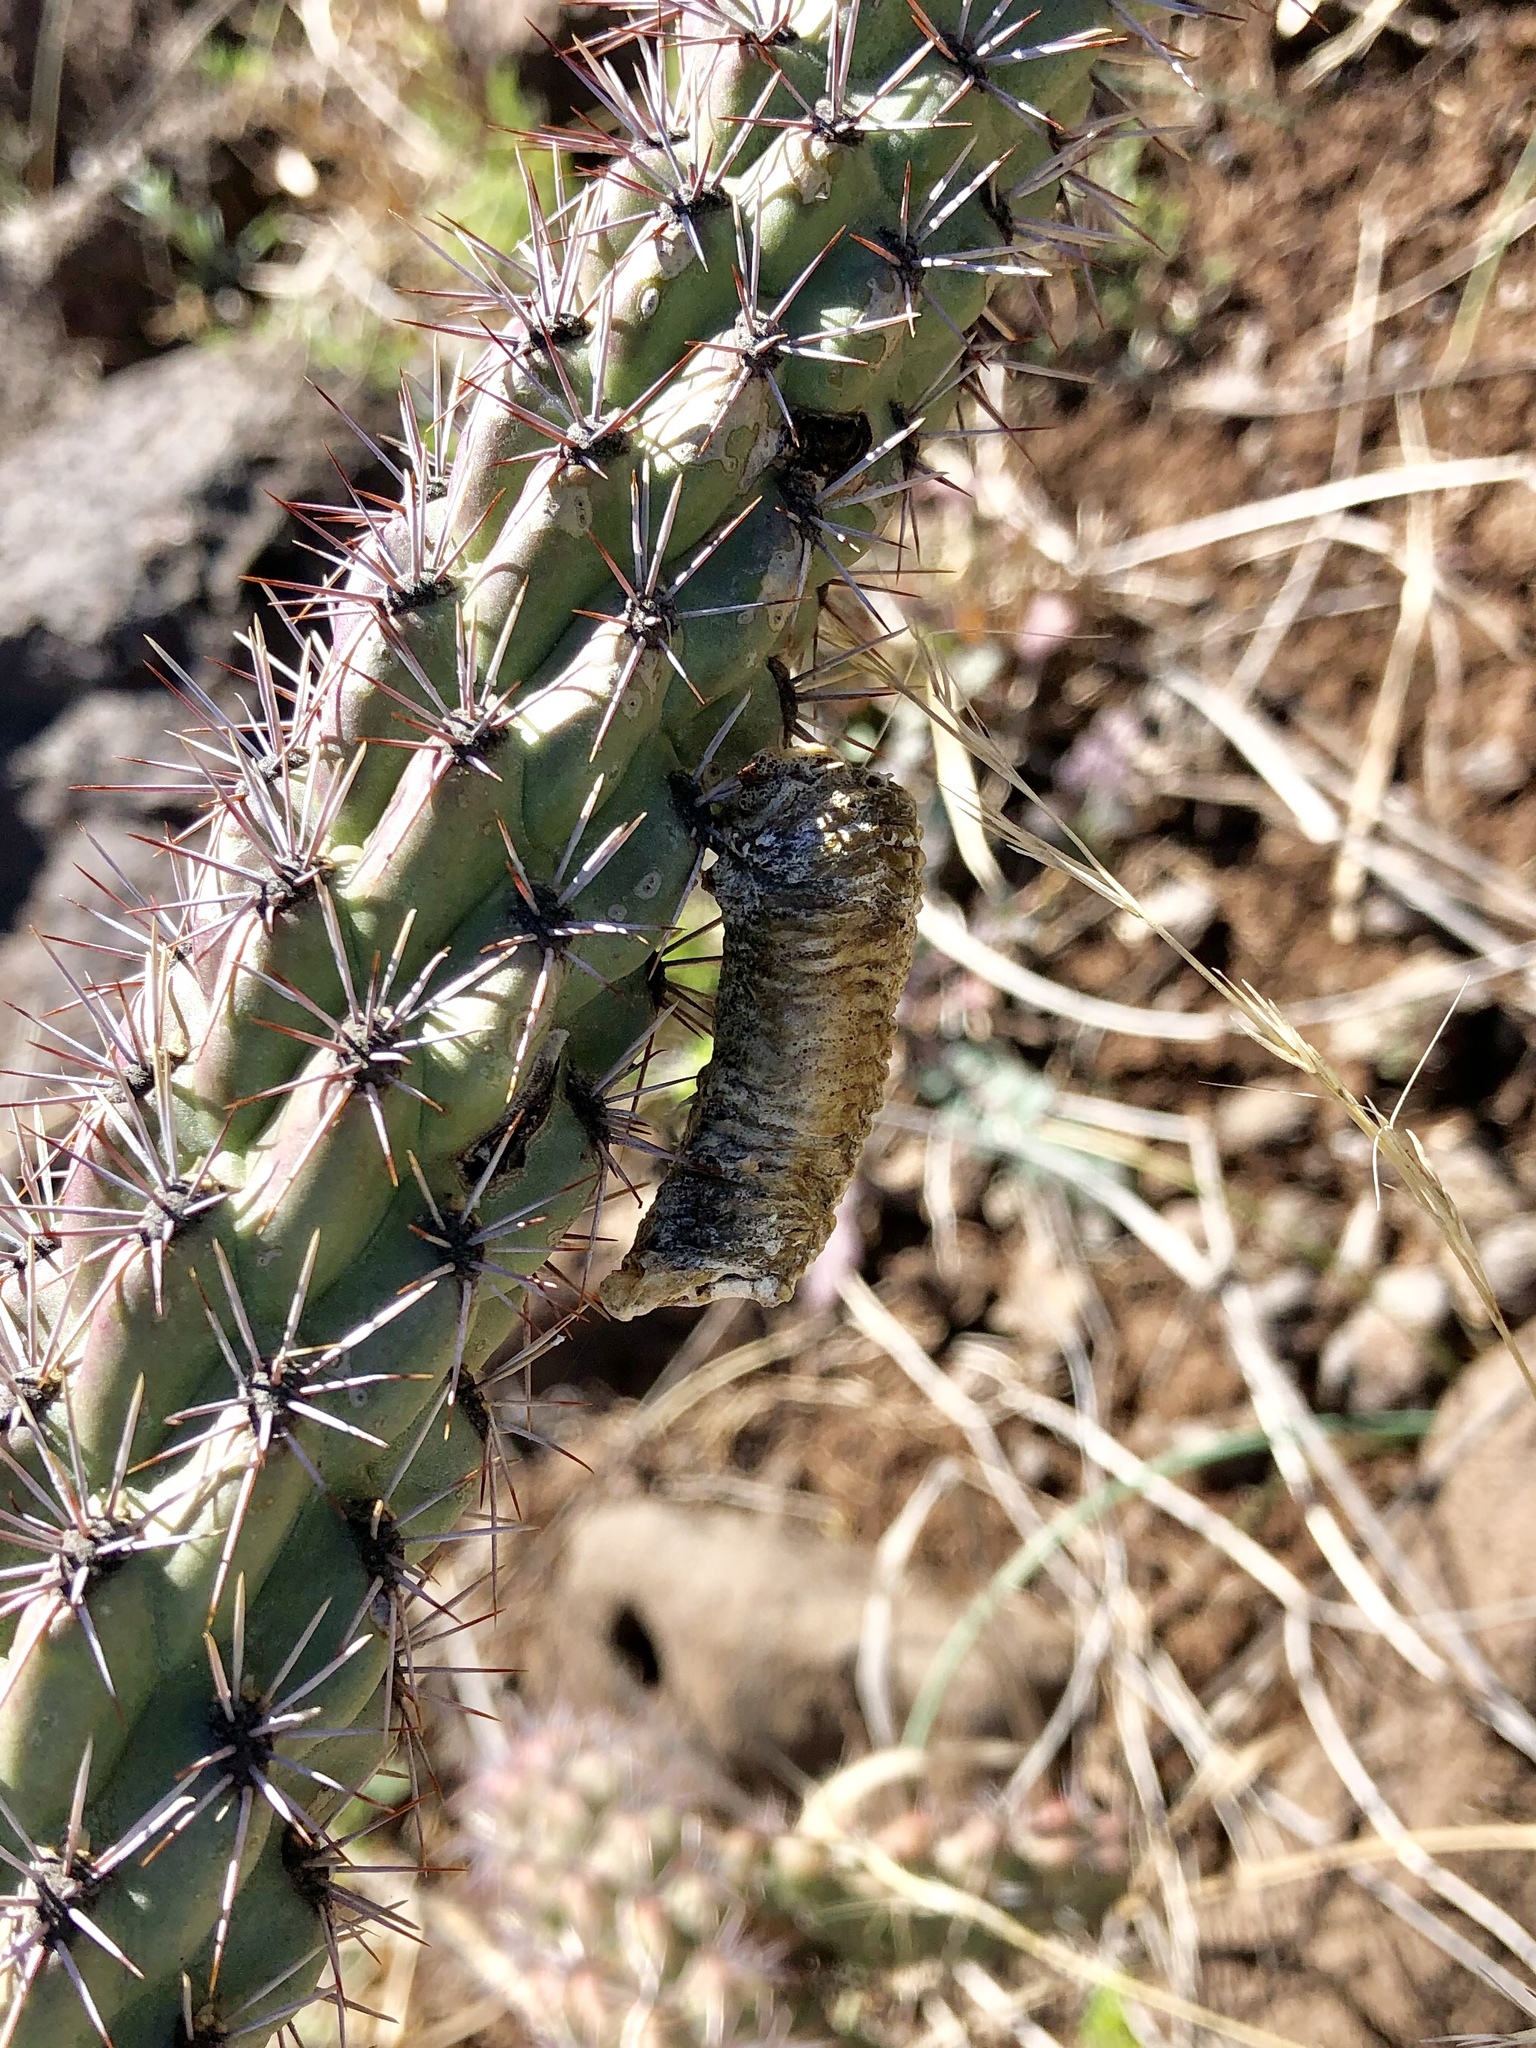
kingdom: Animalia
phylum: Arthropoda
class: Insecta
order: Mantodea
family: Mantidae
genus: Stagmomantis
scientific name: Stagmomantis gracilipes
